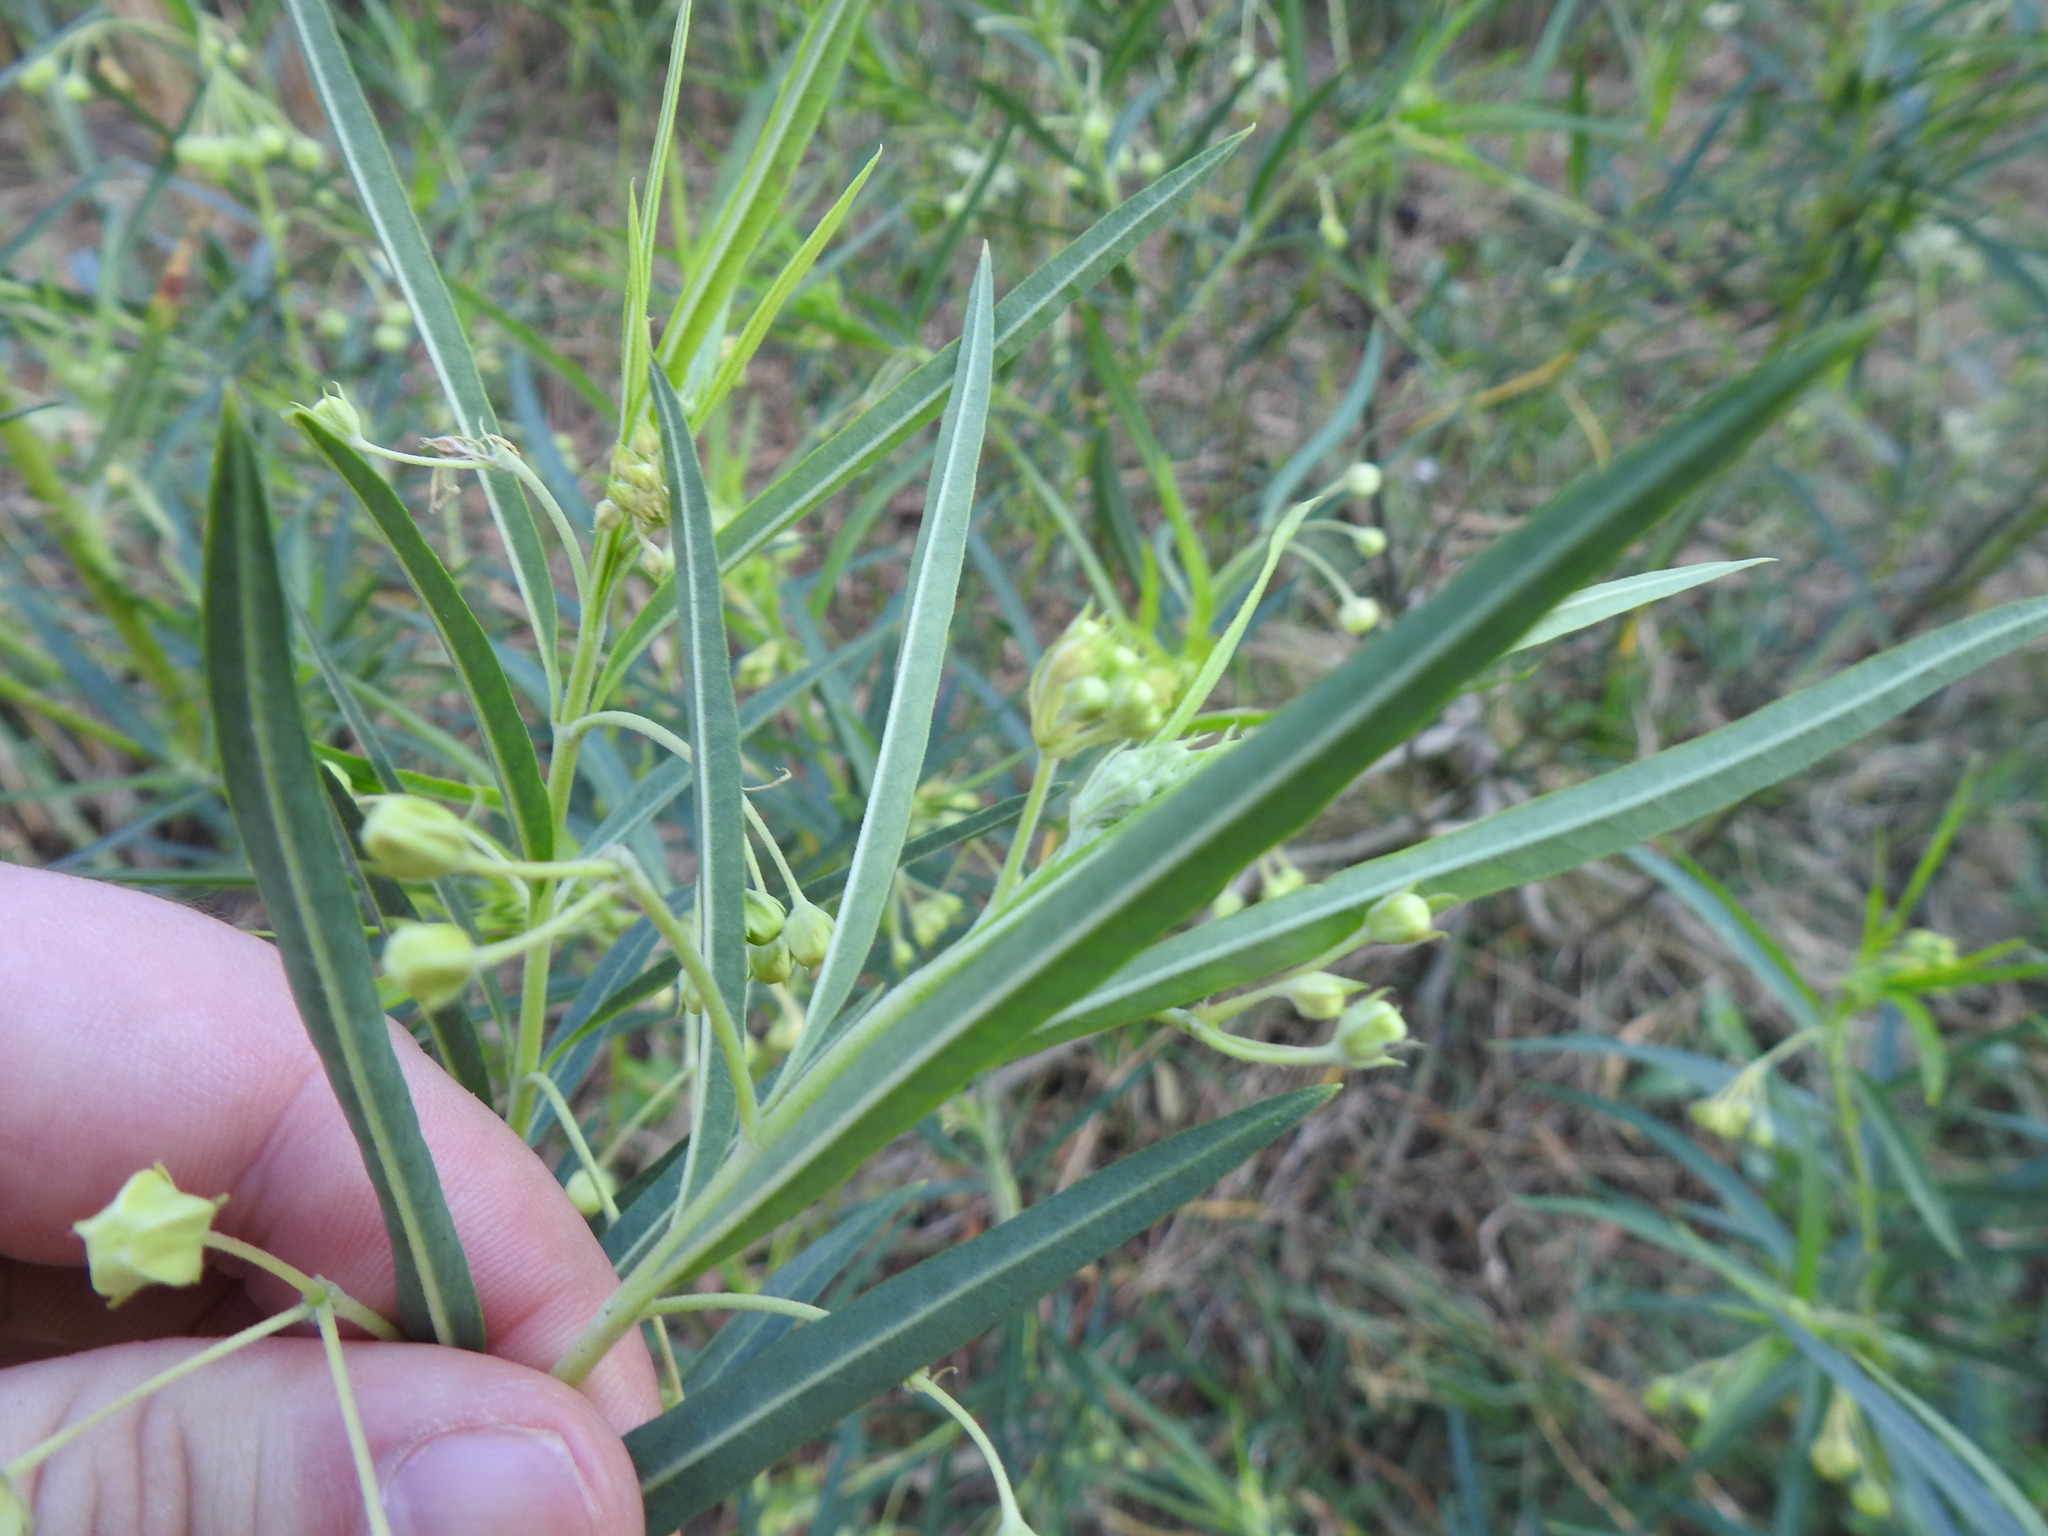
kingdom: Plantae
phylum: Tracheophyta
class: Magnoliopsida
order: Gentianales
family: Apocynaceae
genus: Gomphocarpus
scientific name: Gomphocarpus fruticosus
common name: Milkweed
